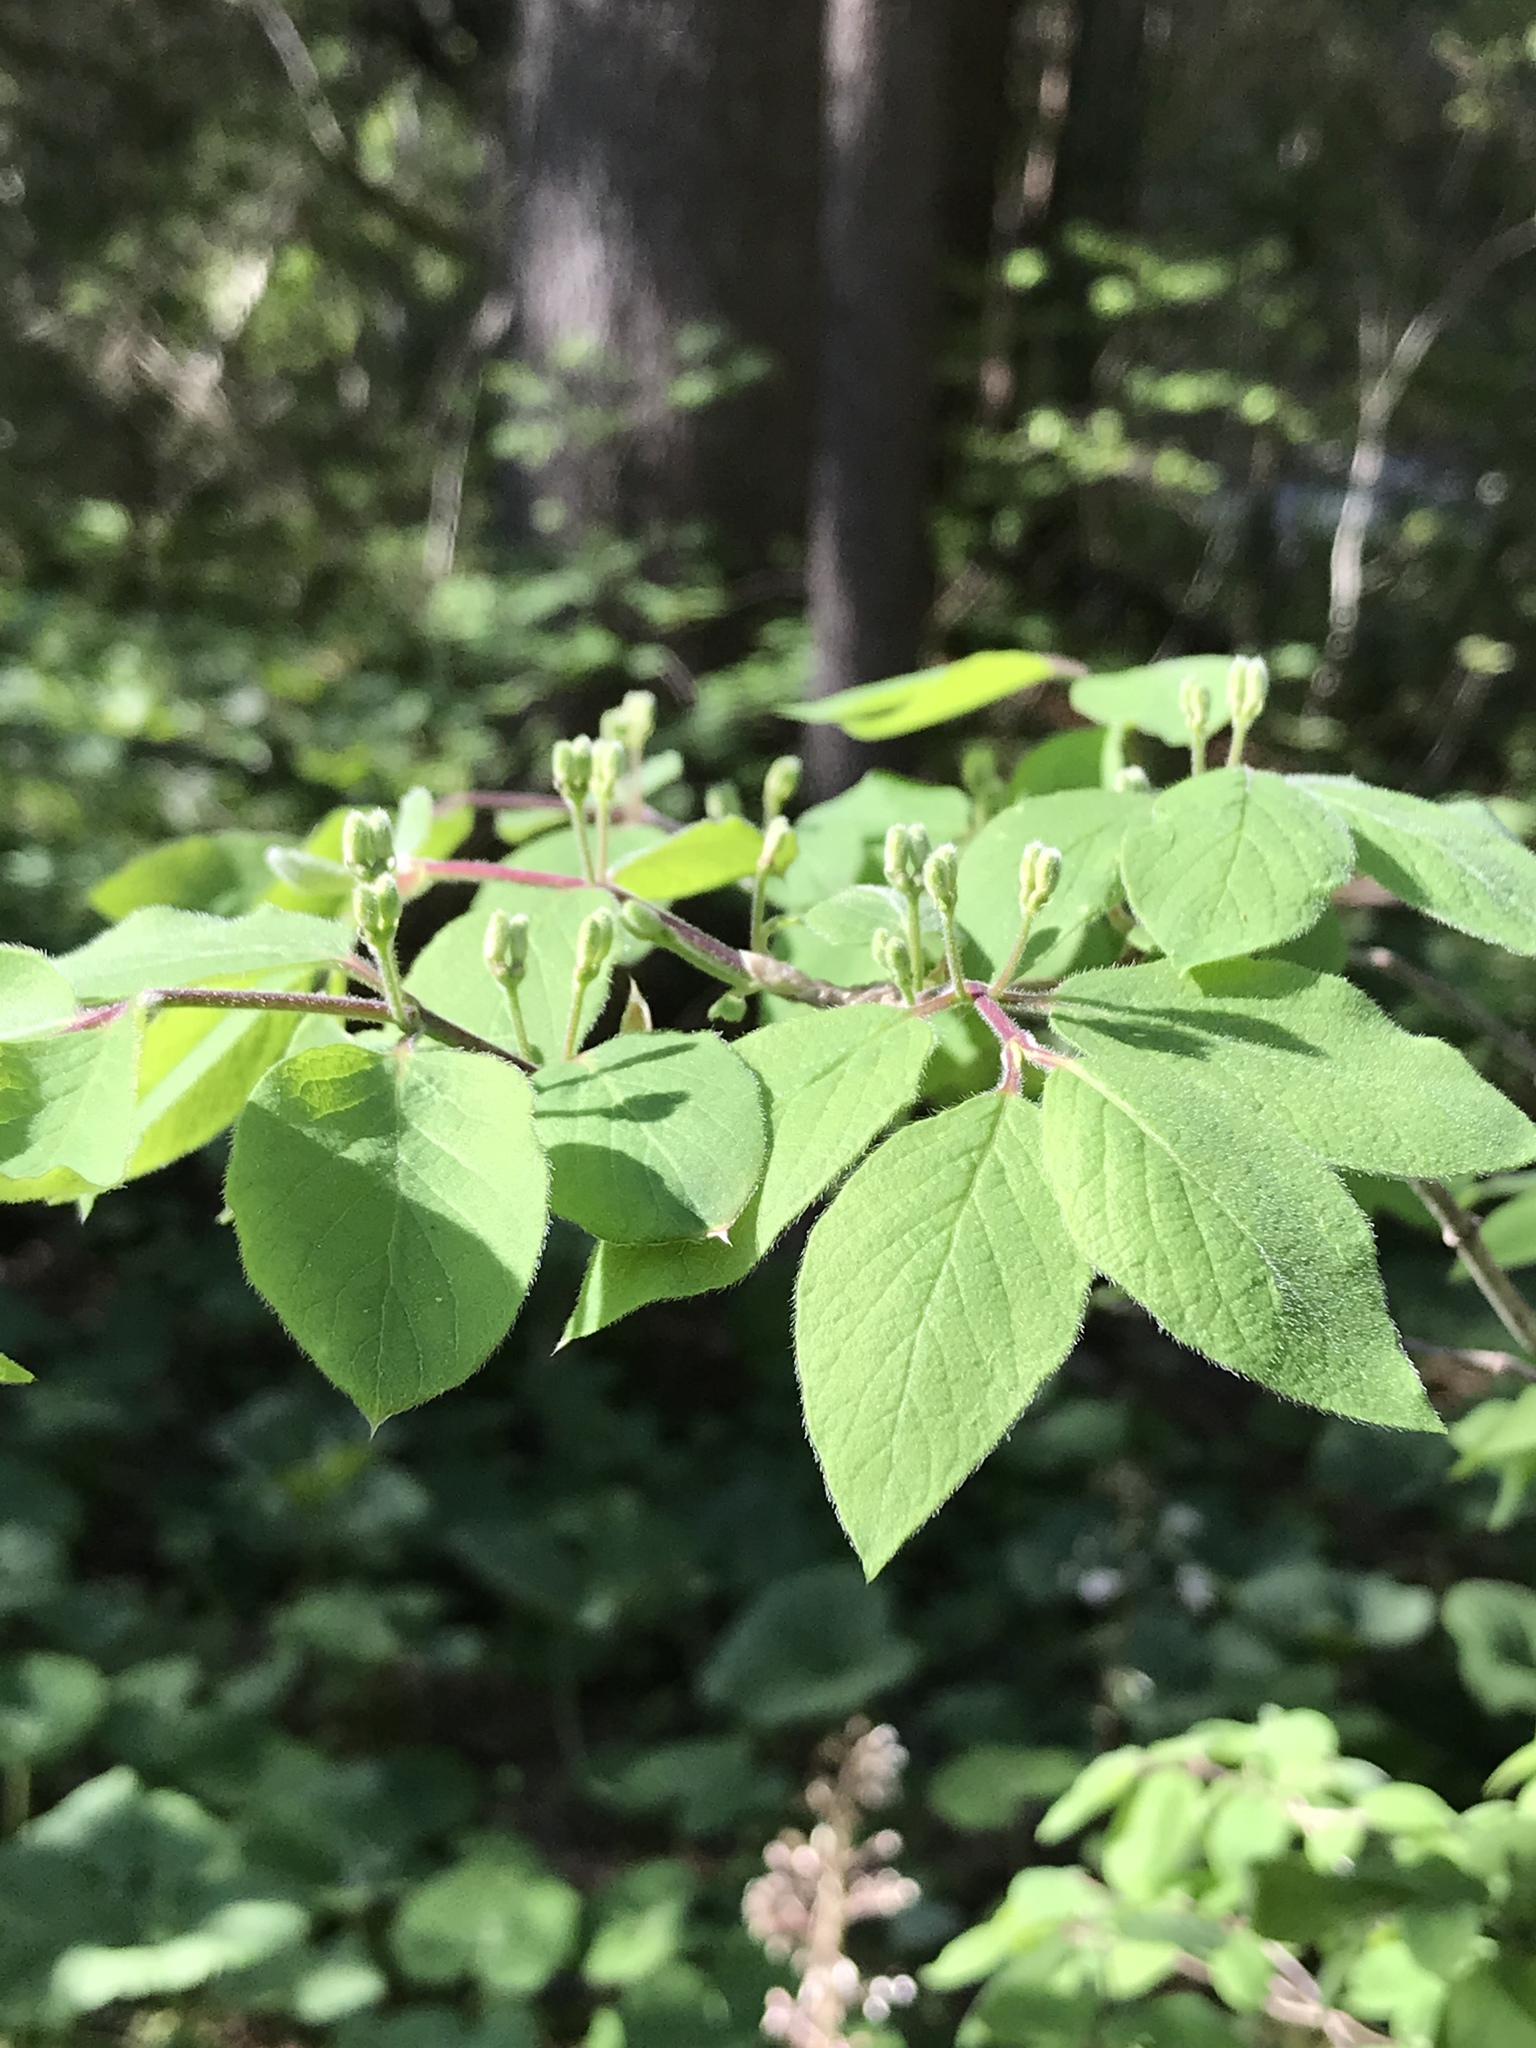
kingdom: Plantae
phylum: Tracheophyta
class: Magnoliopsida
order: Dipsacales
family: Caprifoliaceae
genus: Lonicera
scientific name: Lonicera xylosteum
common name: Fly honeysuckle
